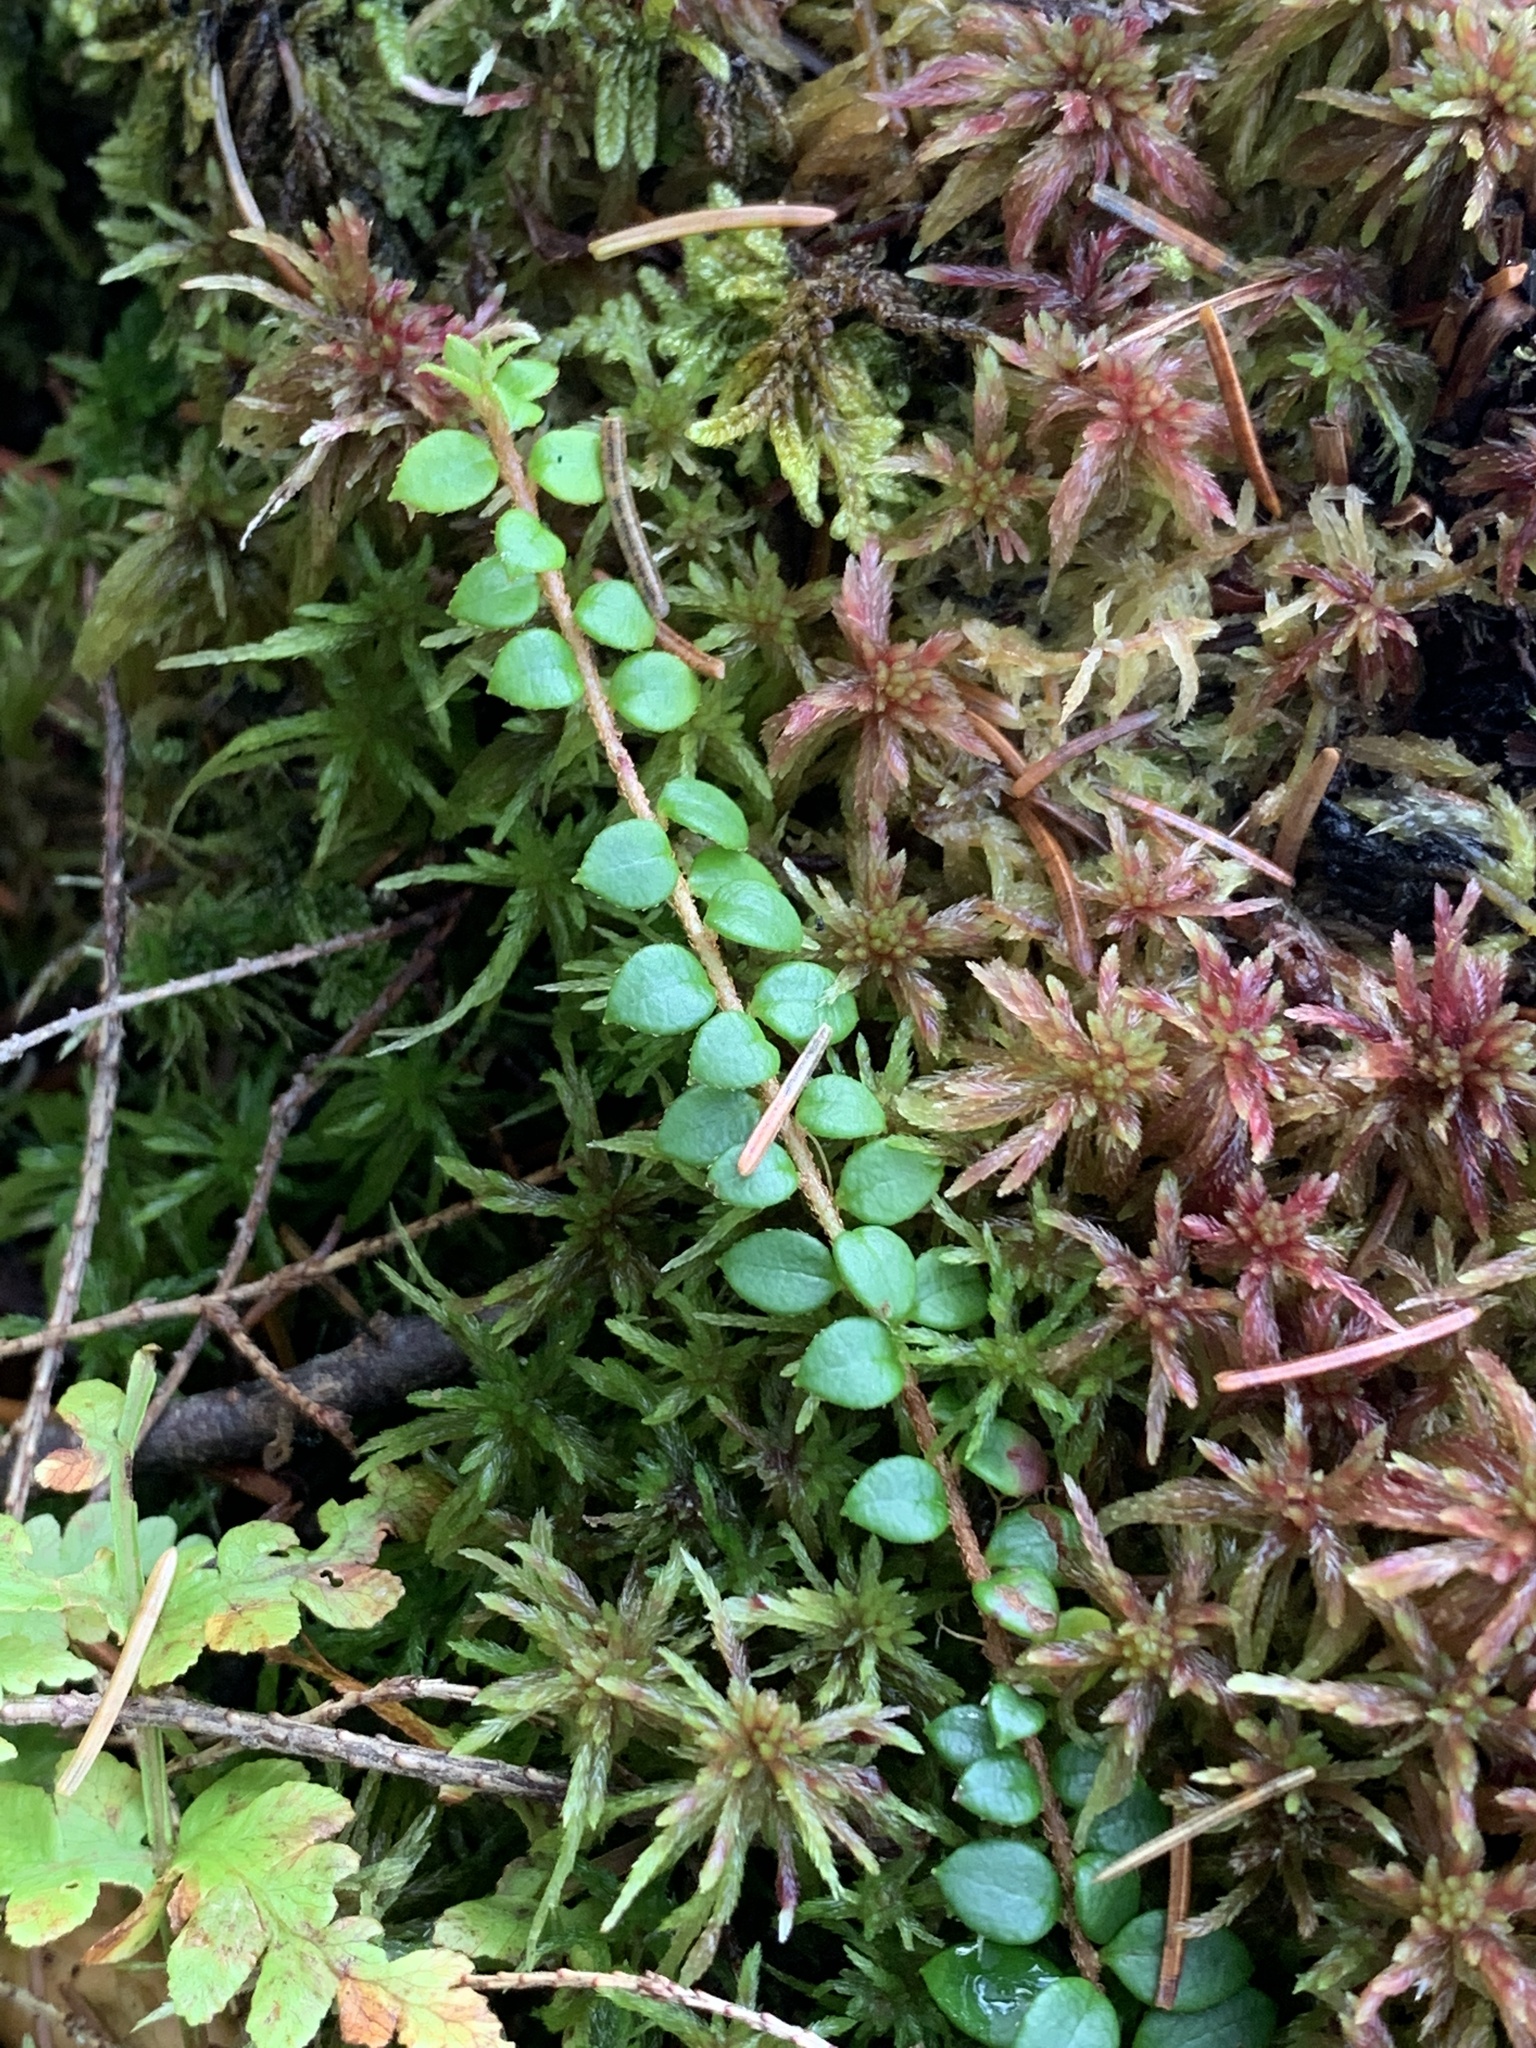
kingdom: Plantae
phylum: Tracheophyta
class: Magnoliopsida
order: Ericales
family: Ericaceae
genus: Gaultheria
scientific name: Gaultheria hispidula
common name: Cancer wintergreen
